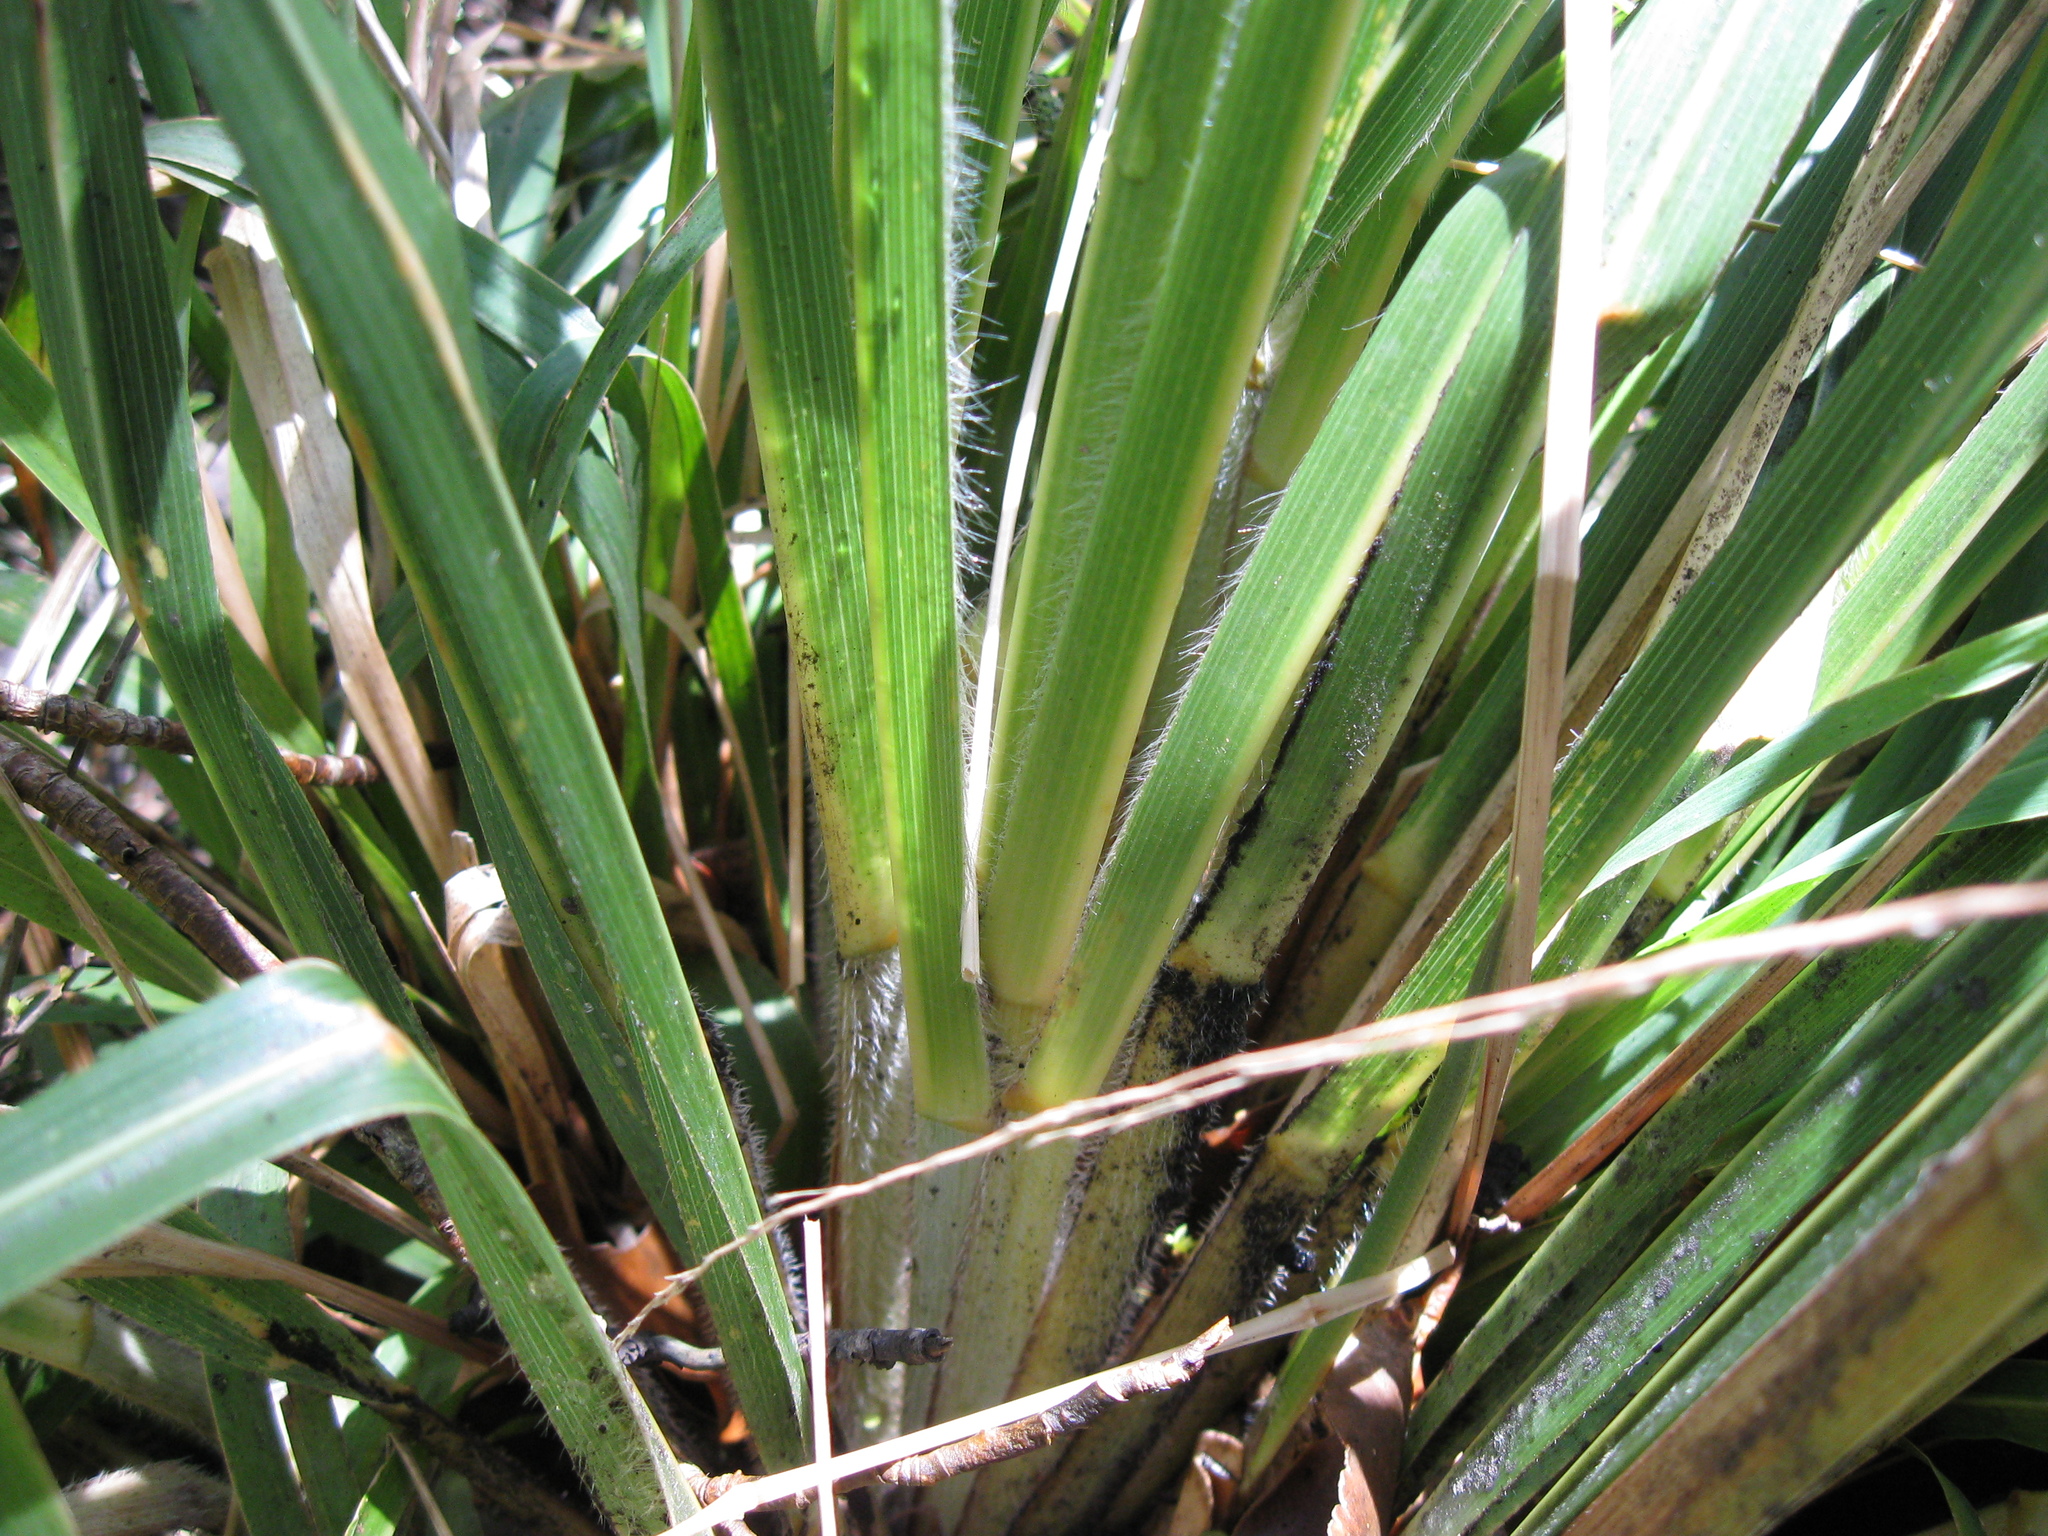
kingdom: Plantae
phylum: Tracheophyta
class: Liliopsida
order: Poales
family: Poaceae
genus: Chionochloa
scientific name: Chionochloa conspicua
